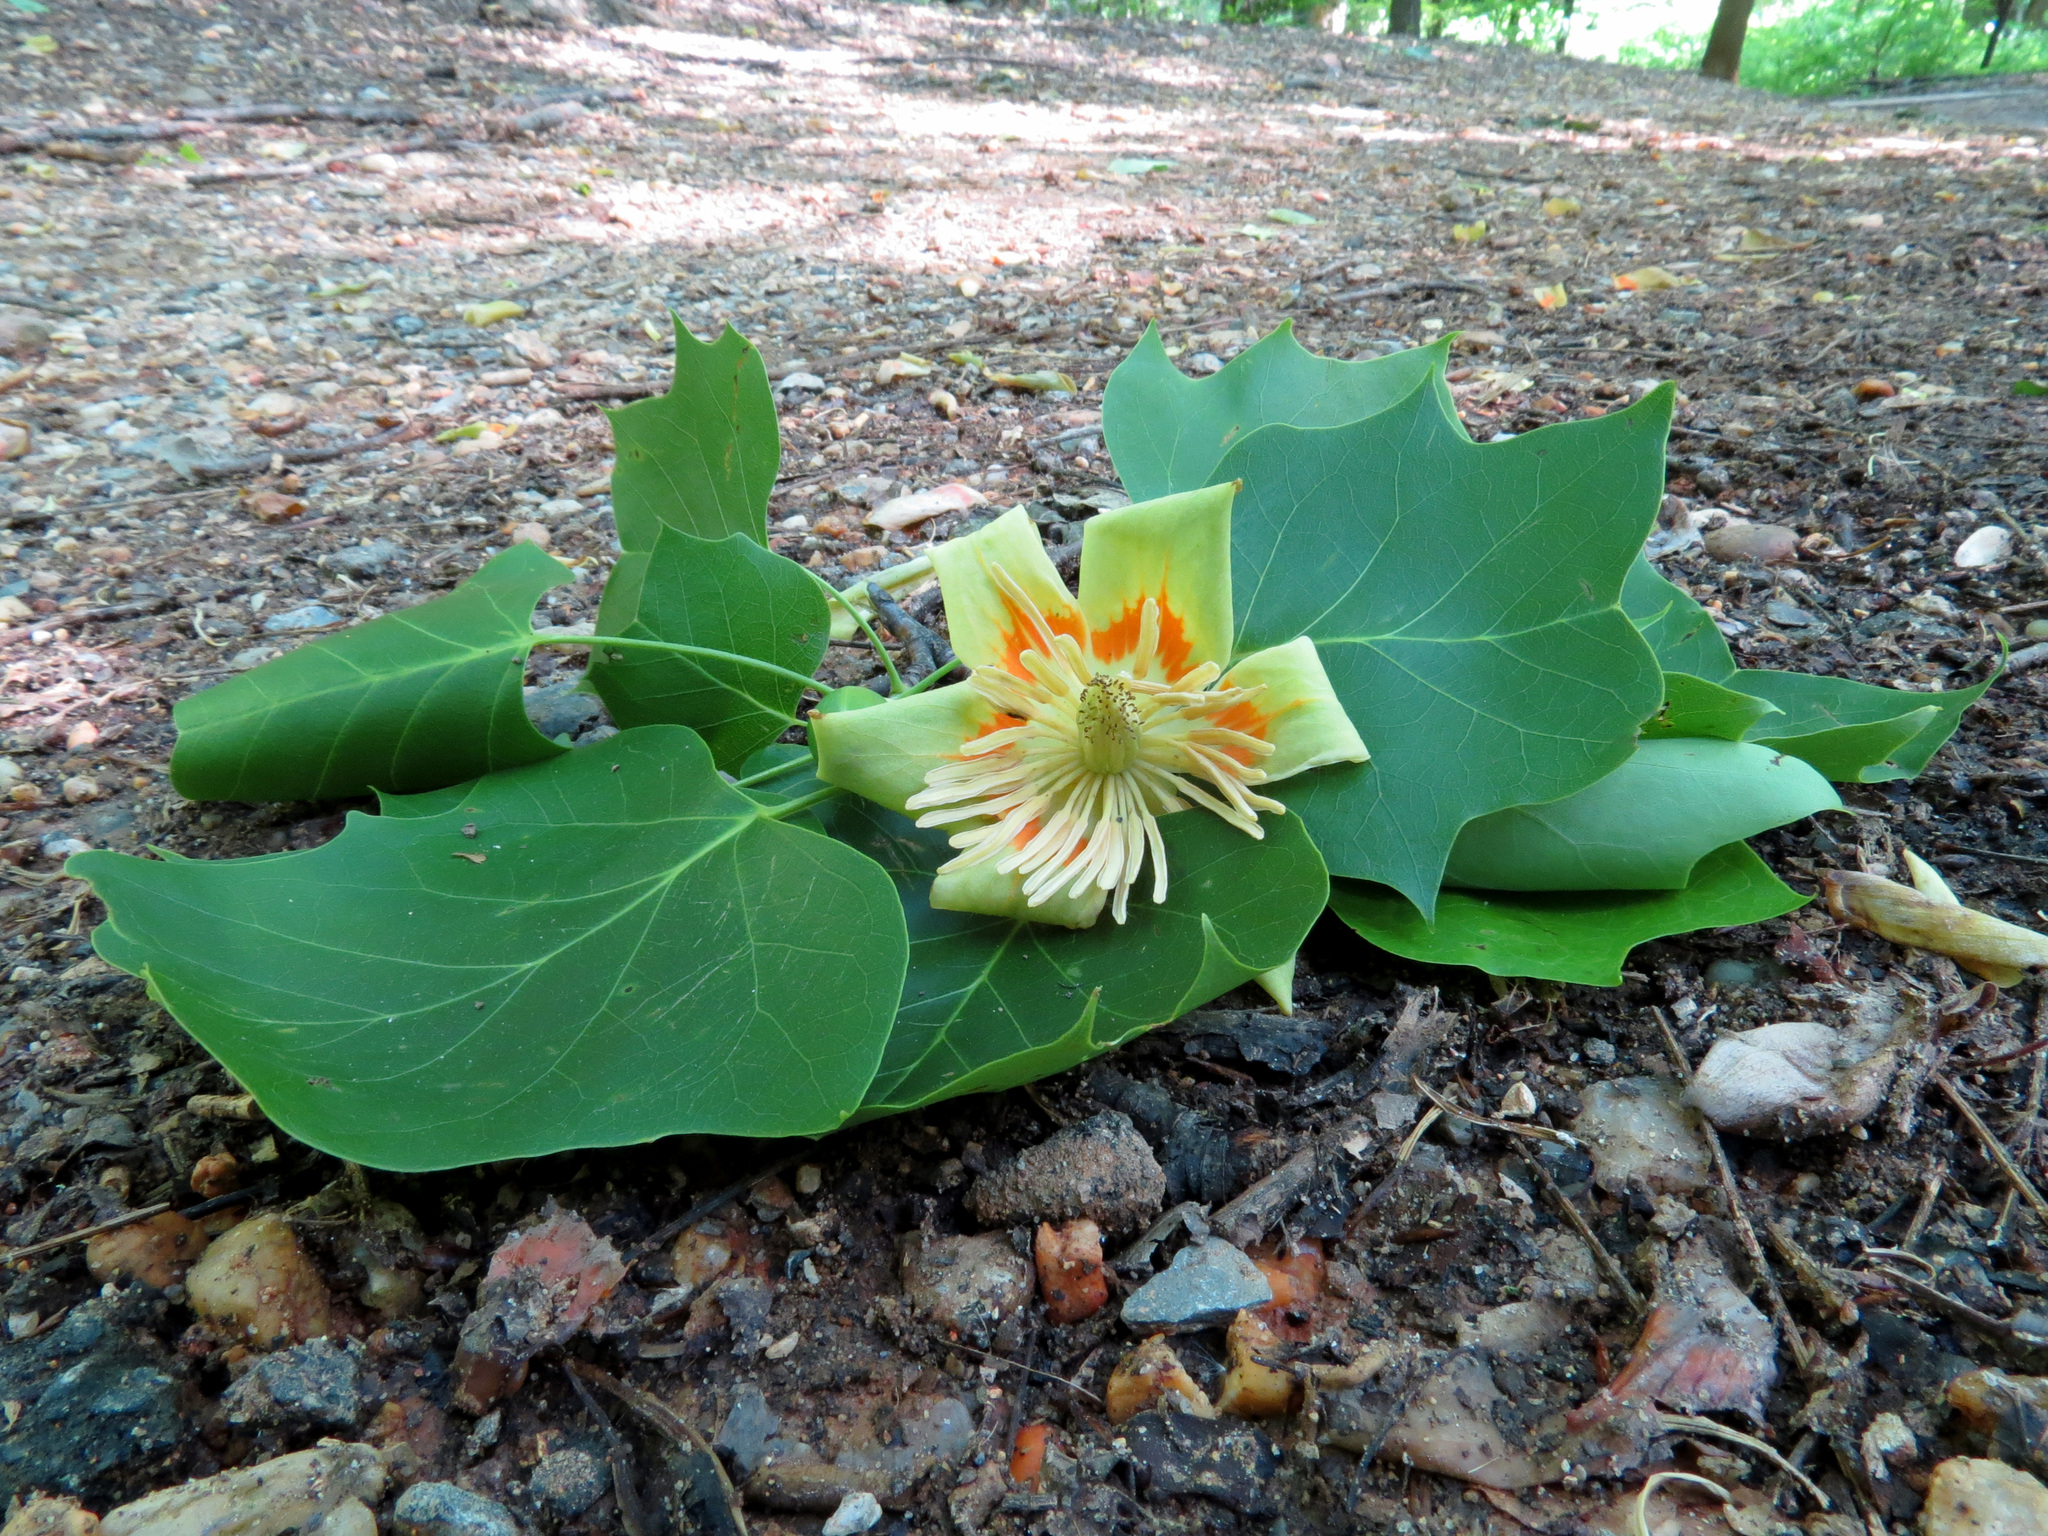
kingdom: Plantae
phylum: Tracheophyta
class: Magnoliopsida
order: Magnoliales
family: Magnoliaceae
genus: Liriodendron
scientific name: Liriodendron tulipifera
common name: Tulip tree
